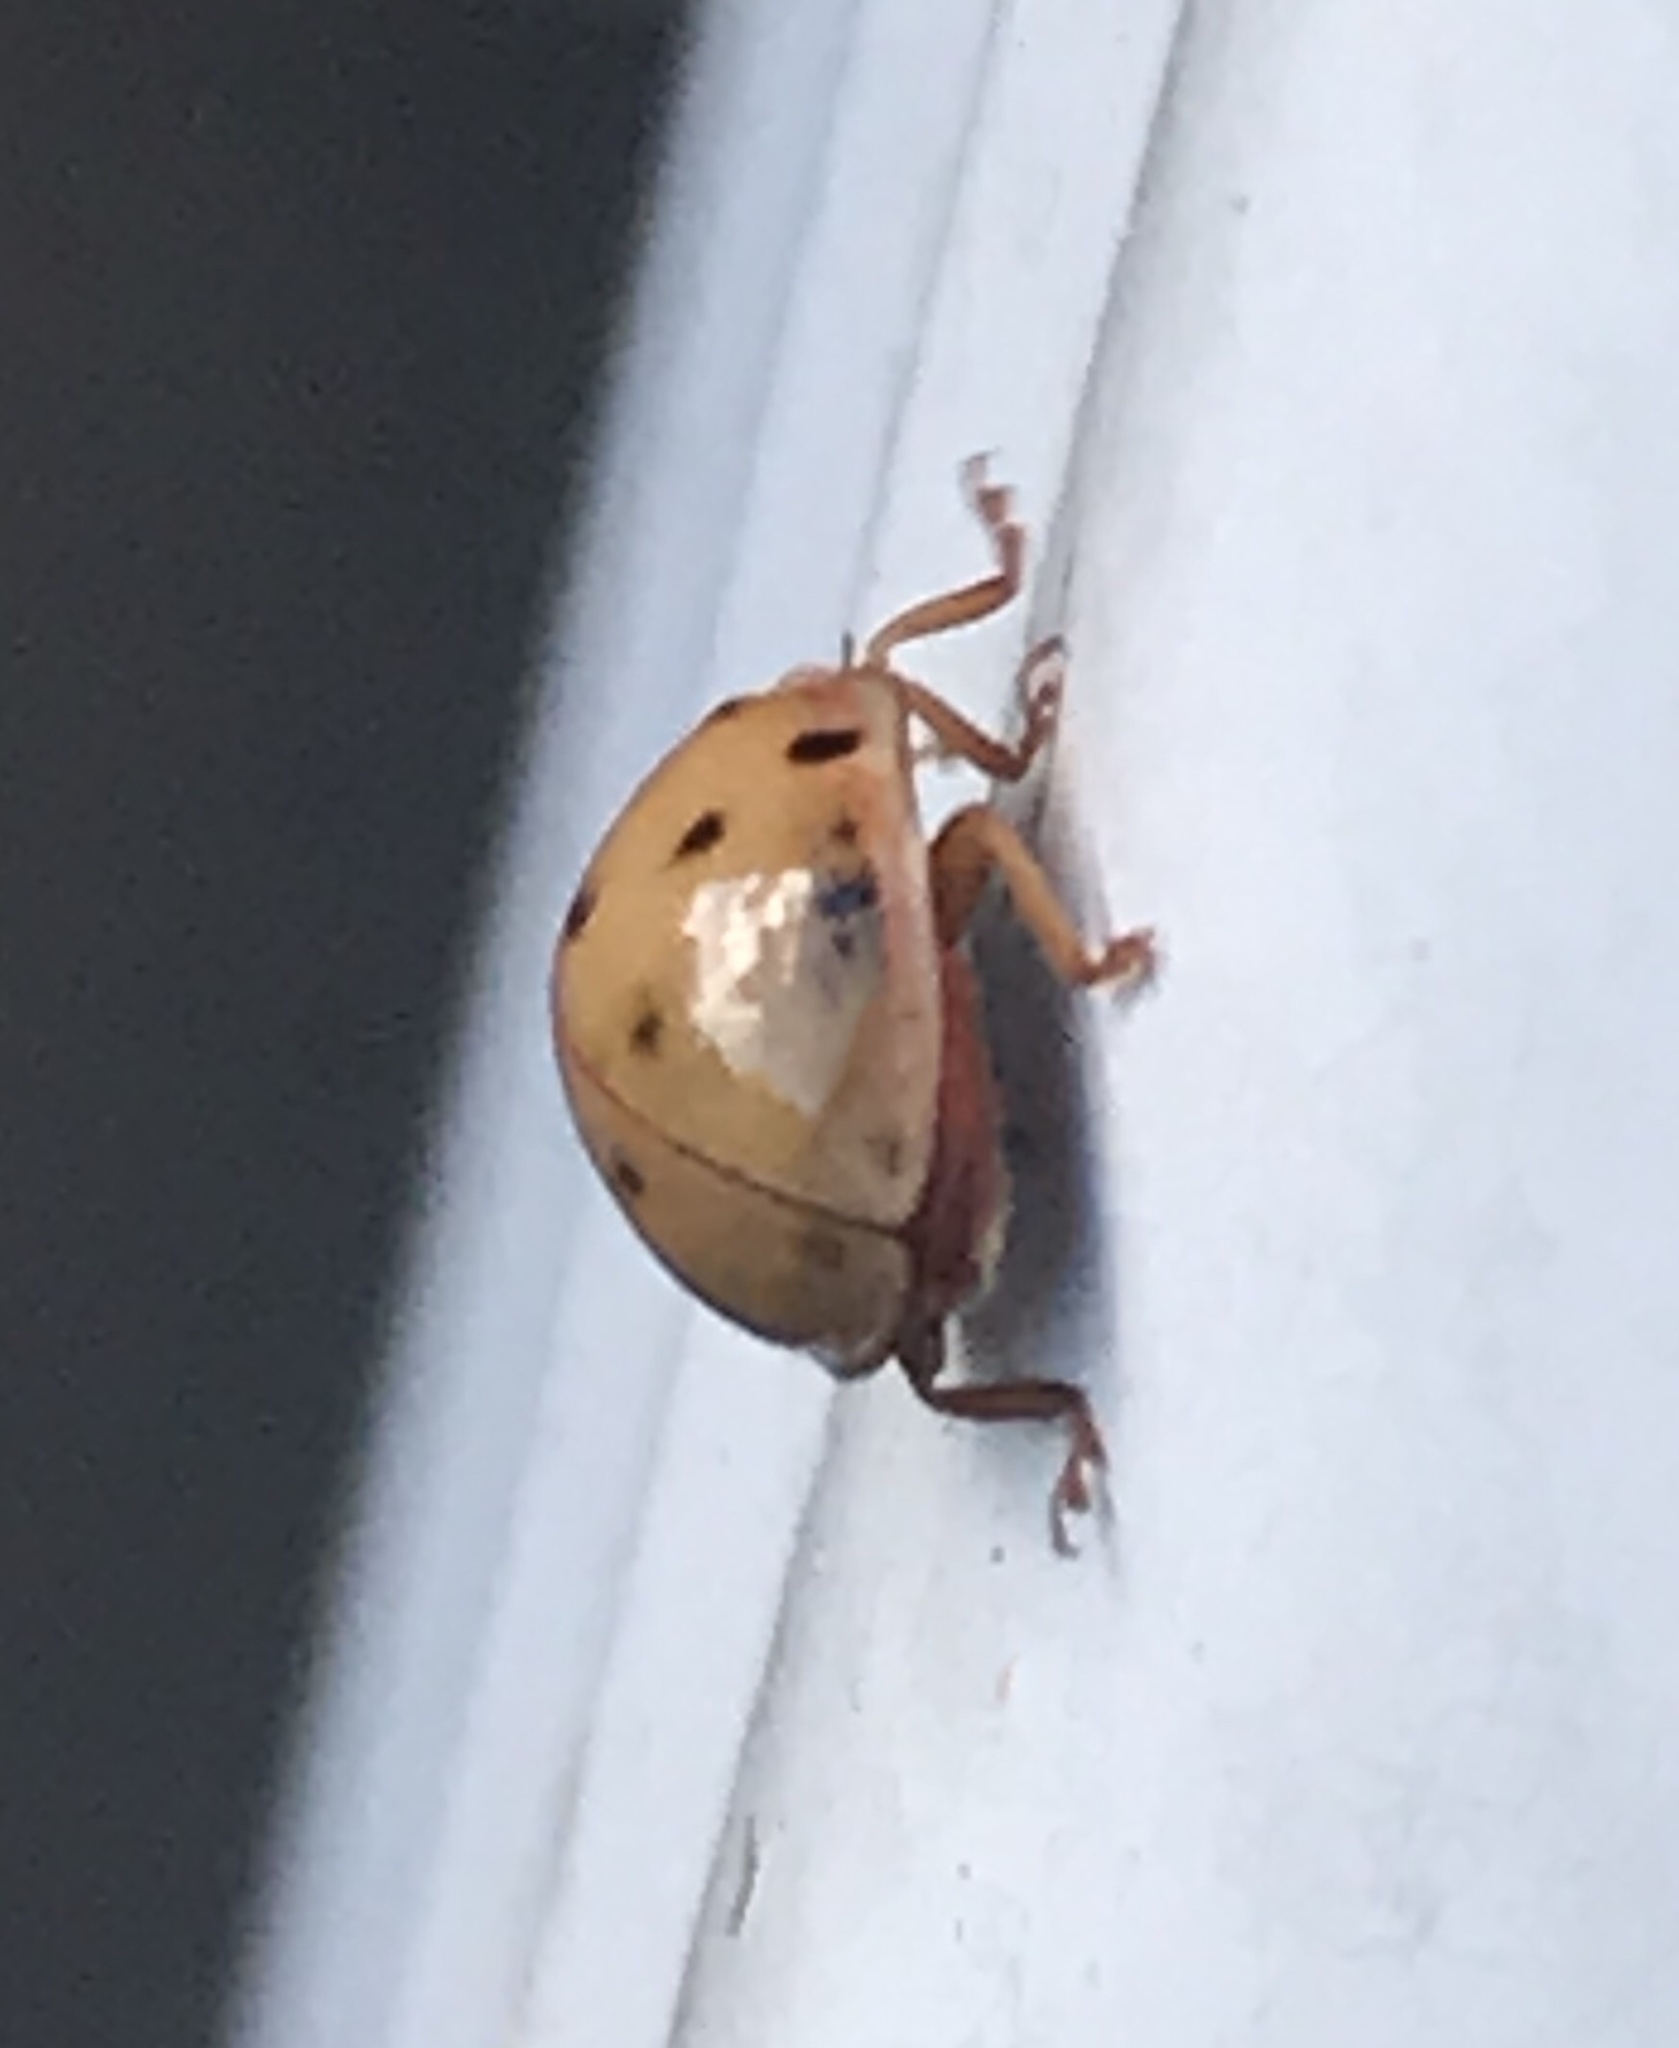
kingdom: Animalia
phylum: Arthropoda
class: Insecta
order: Coleoptera
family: Coccinellidae
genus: Harmonia
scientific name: Harmonia axyridis
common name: Harlequin ladybird
